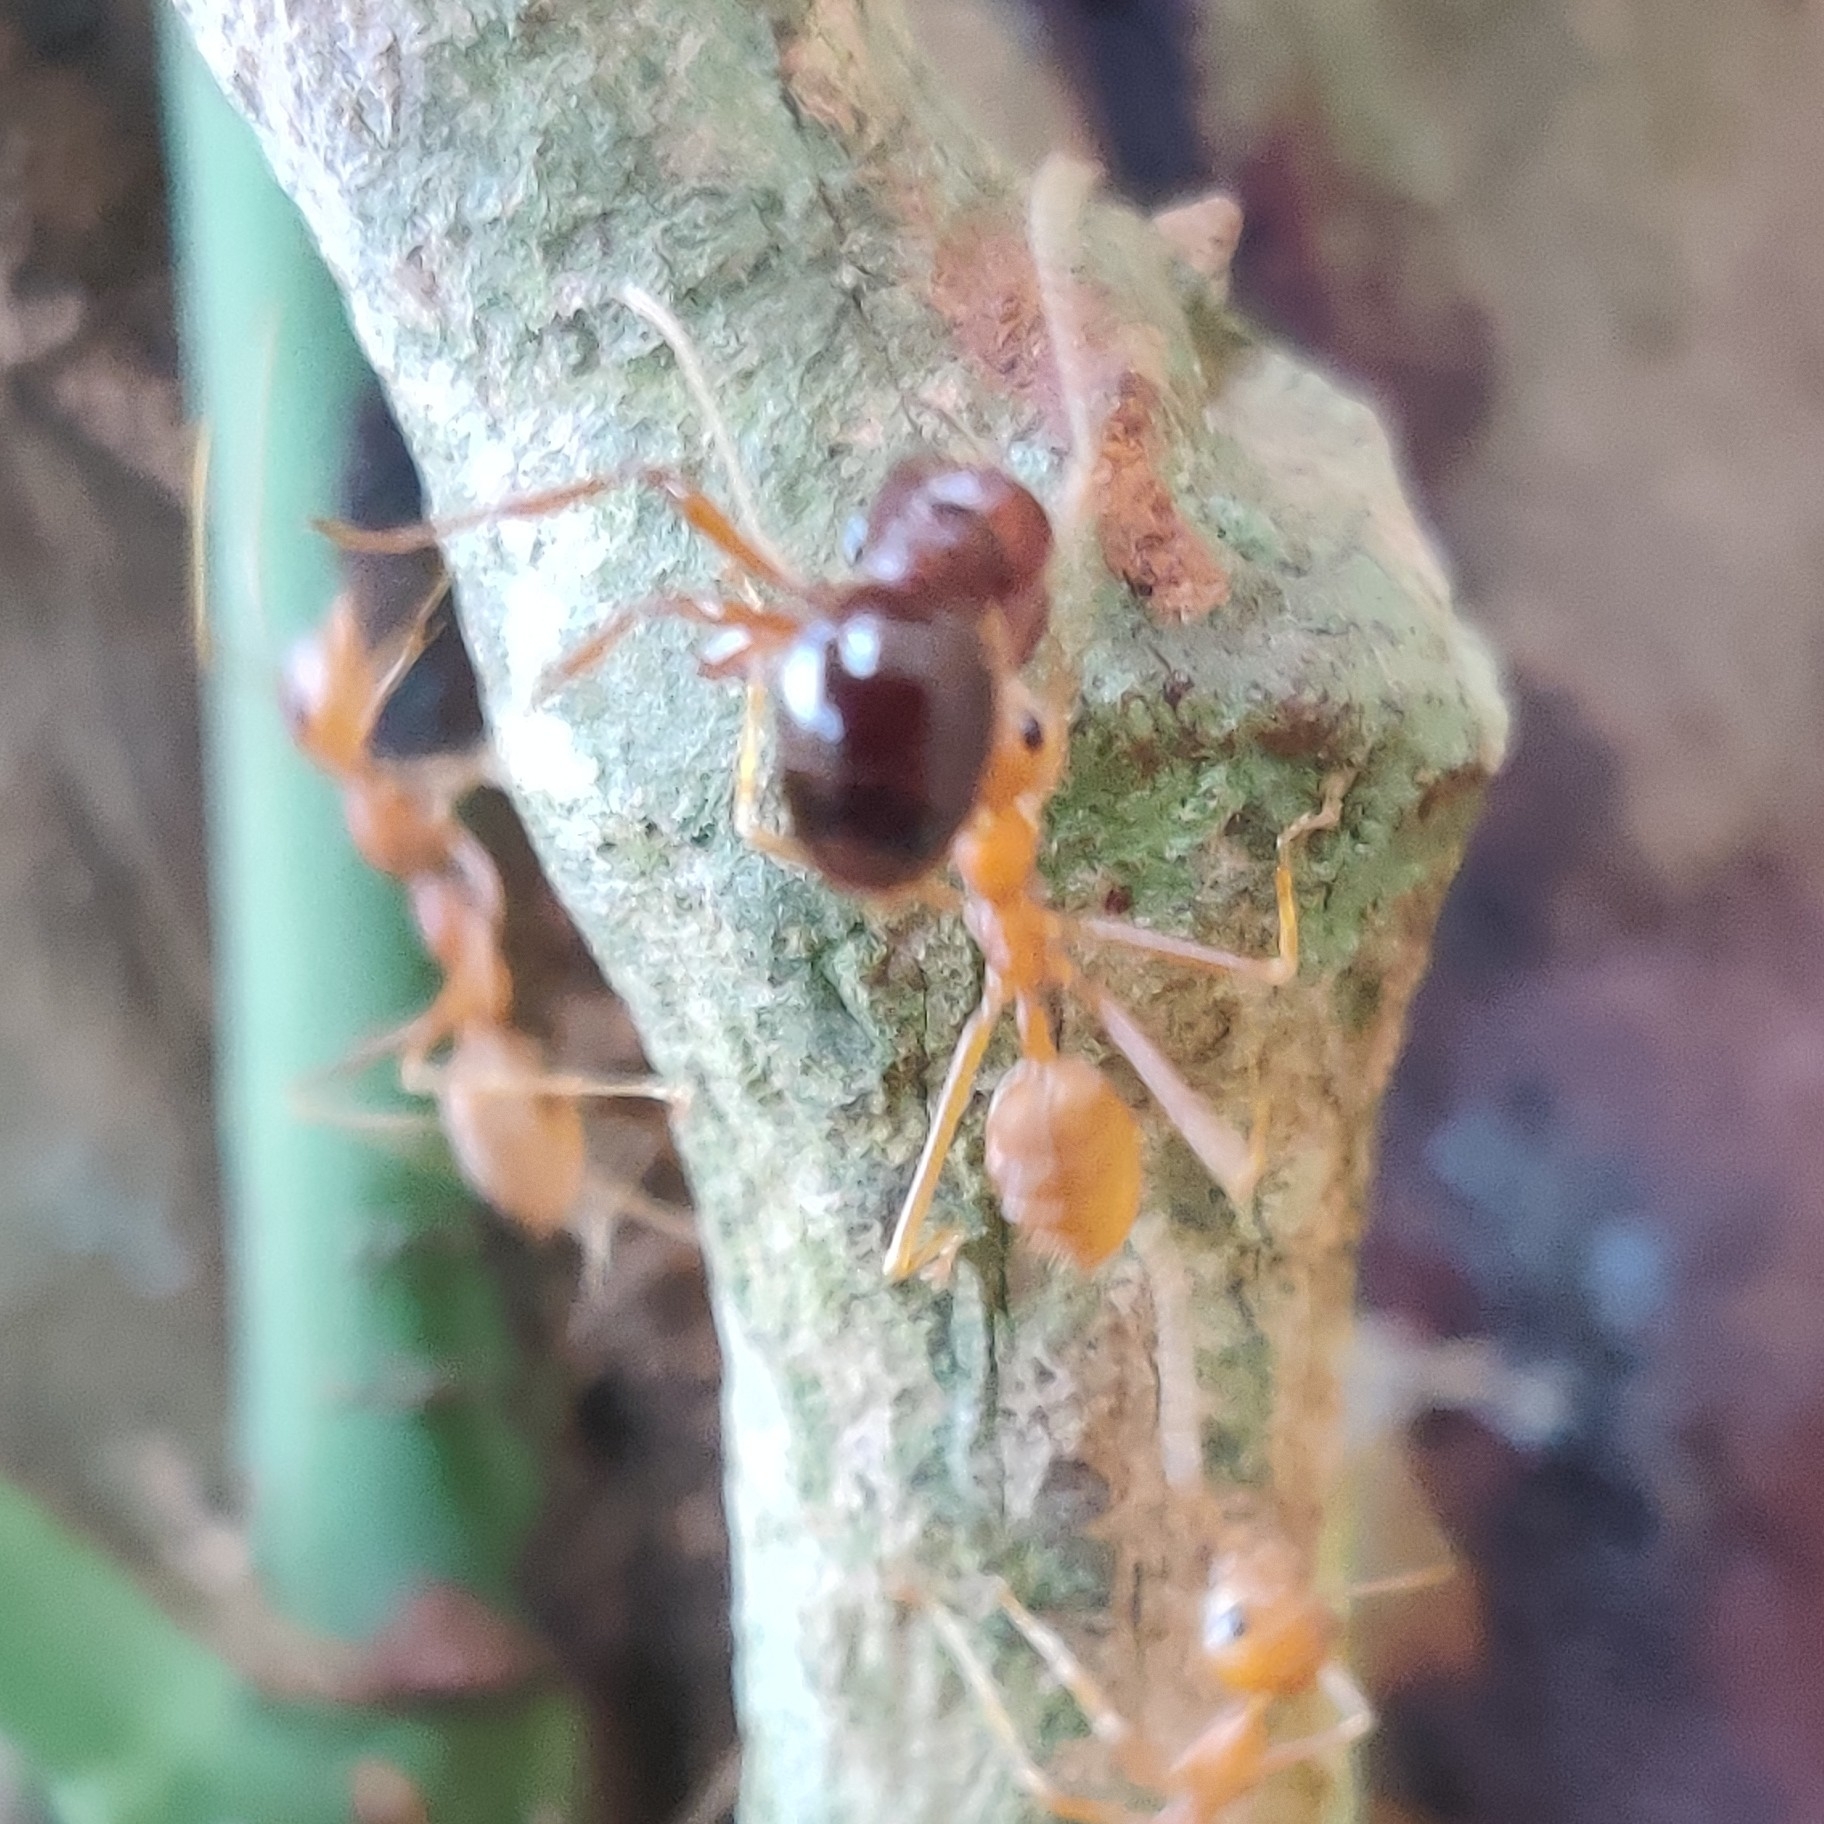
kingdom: Animalia
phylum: Arthropoda
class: Insecta
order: Hymenoptera
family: Formicidae
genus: Oecophylla
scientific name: Oecophylla smaragdina
